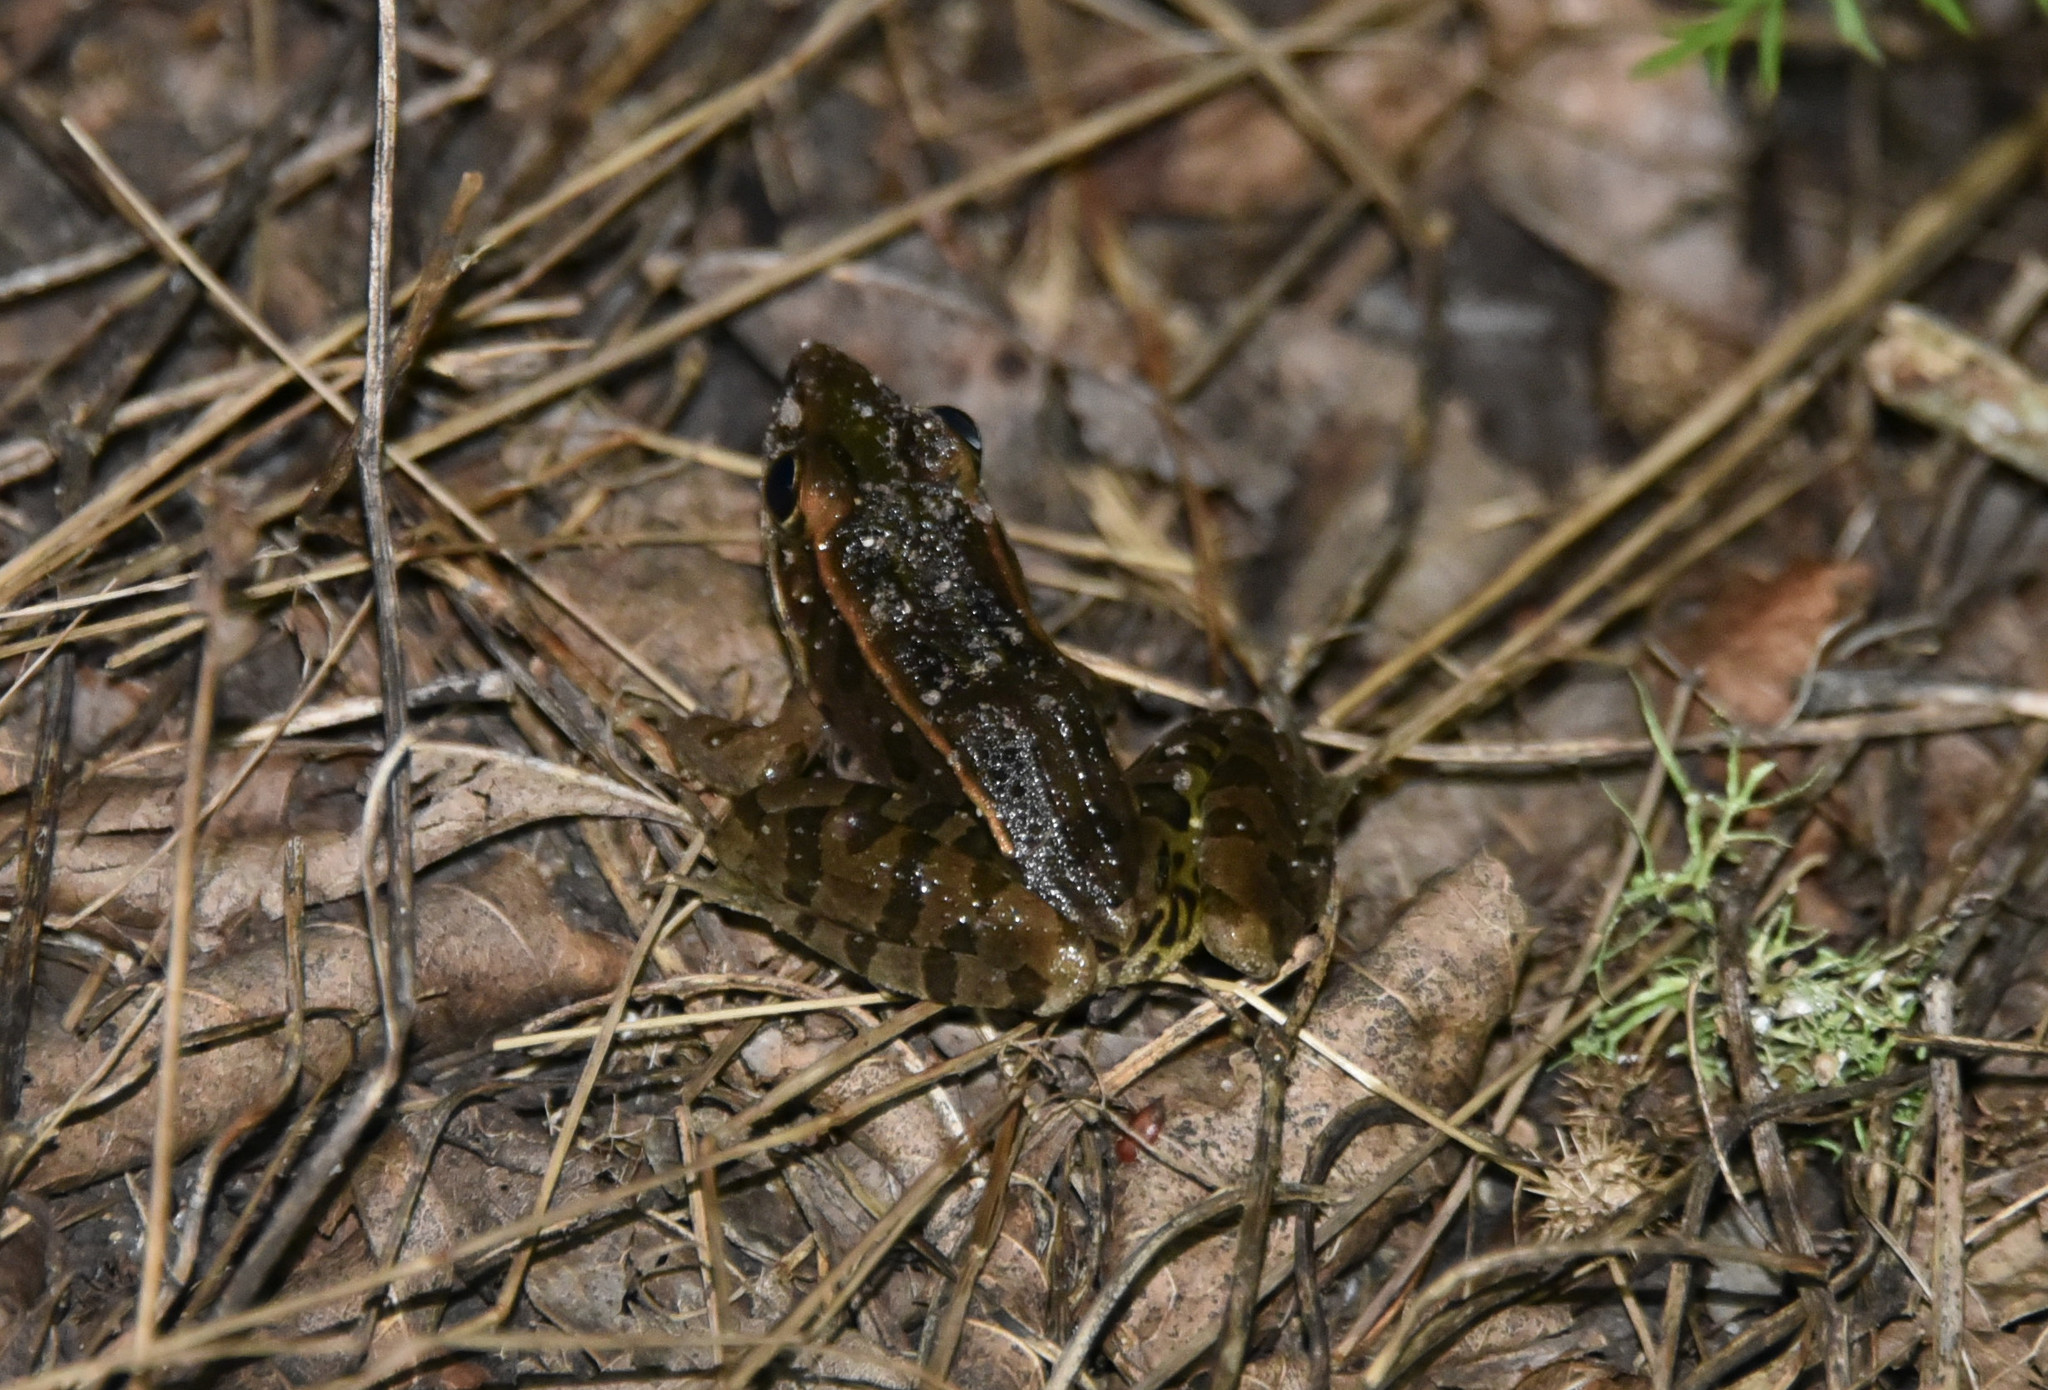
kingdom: Animalia
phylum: Chordata
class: Amphibia
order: Anura
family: Ranidae
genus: Lithobates
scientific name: Lithobates sphenocephalus
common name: Southern leopard frog
